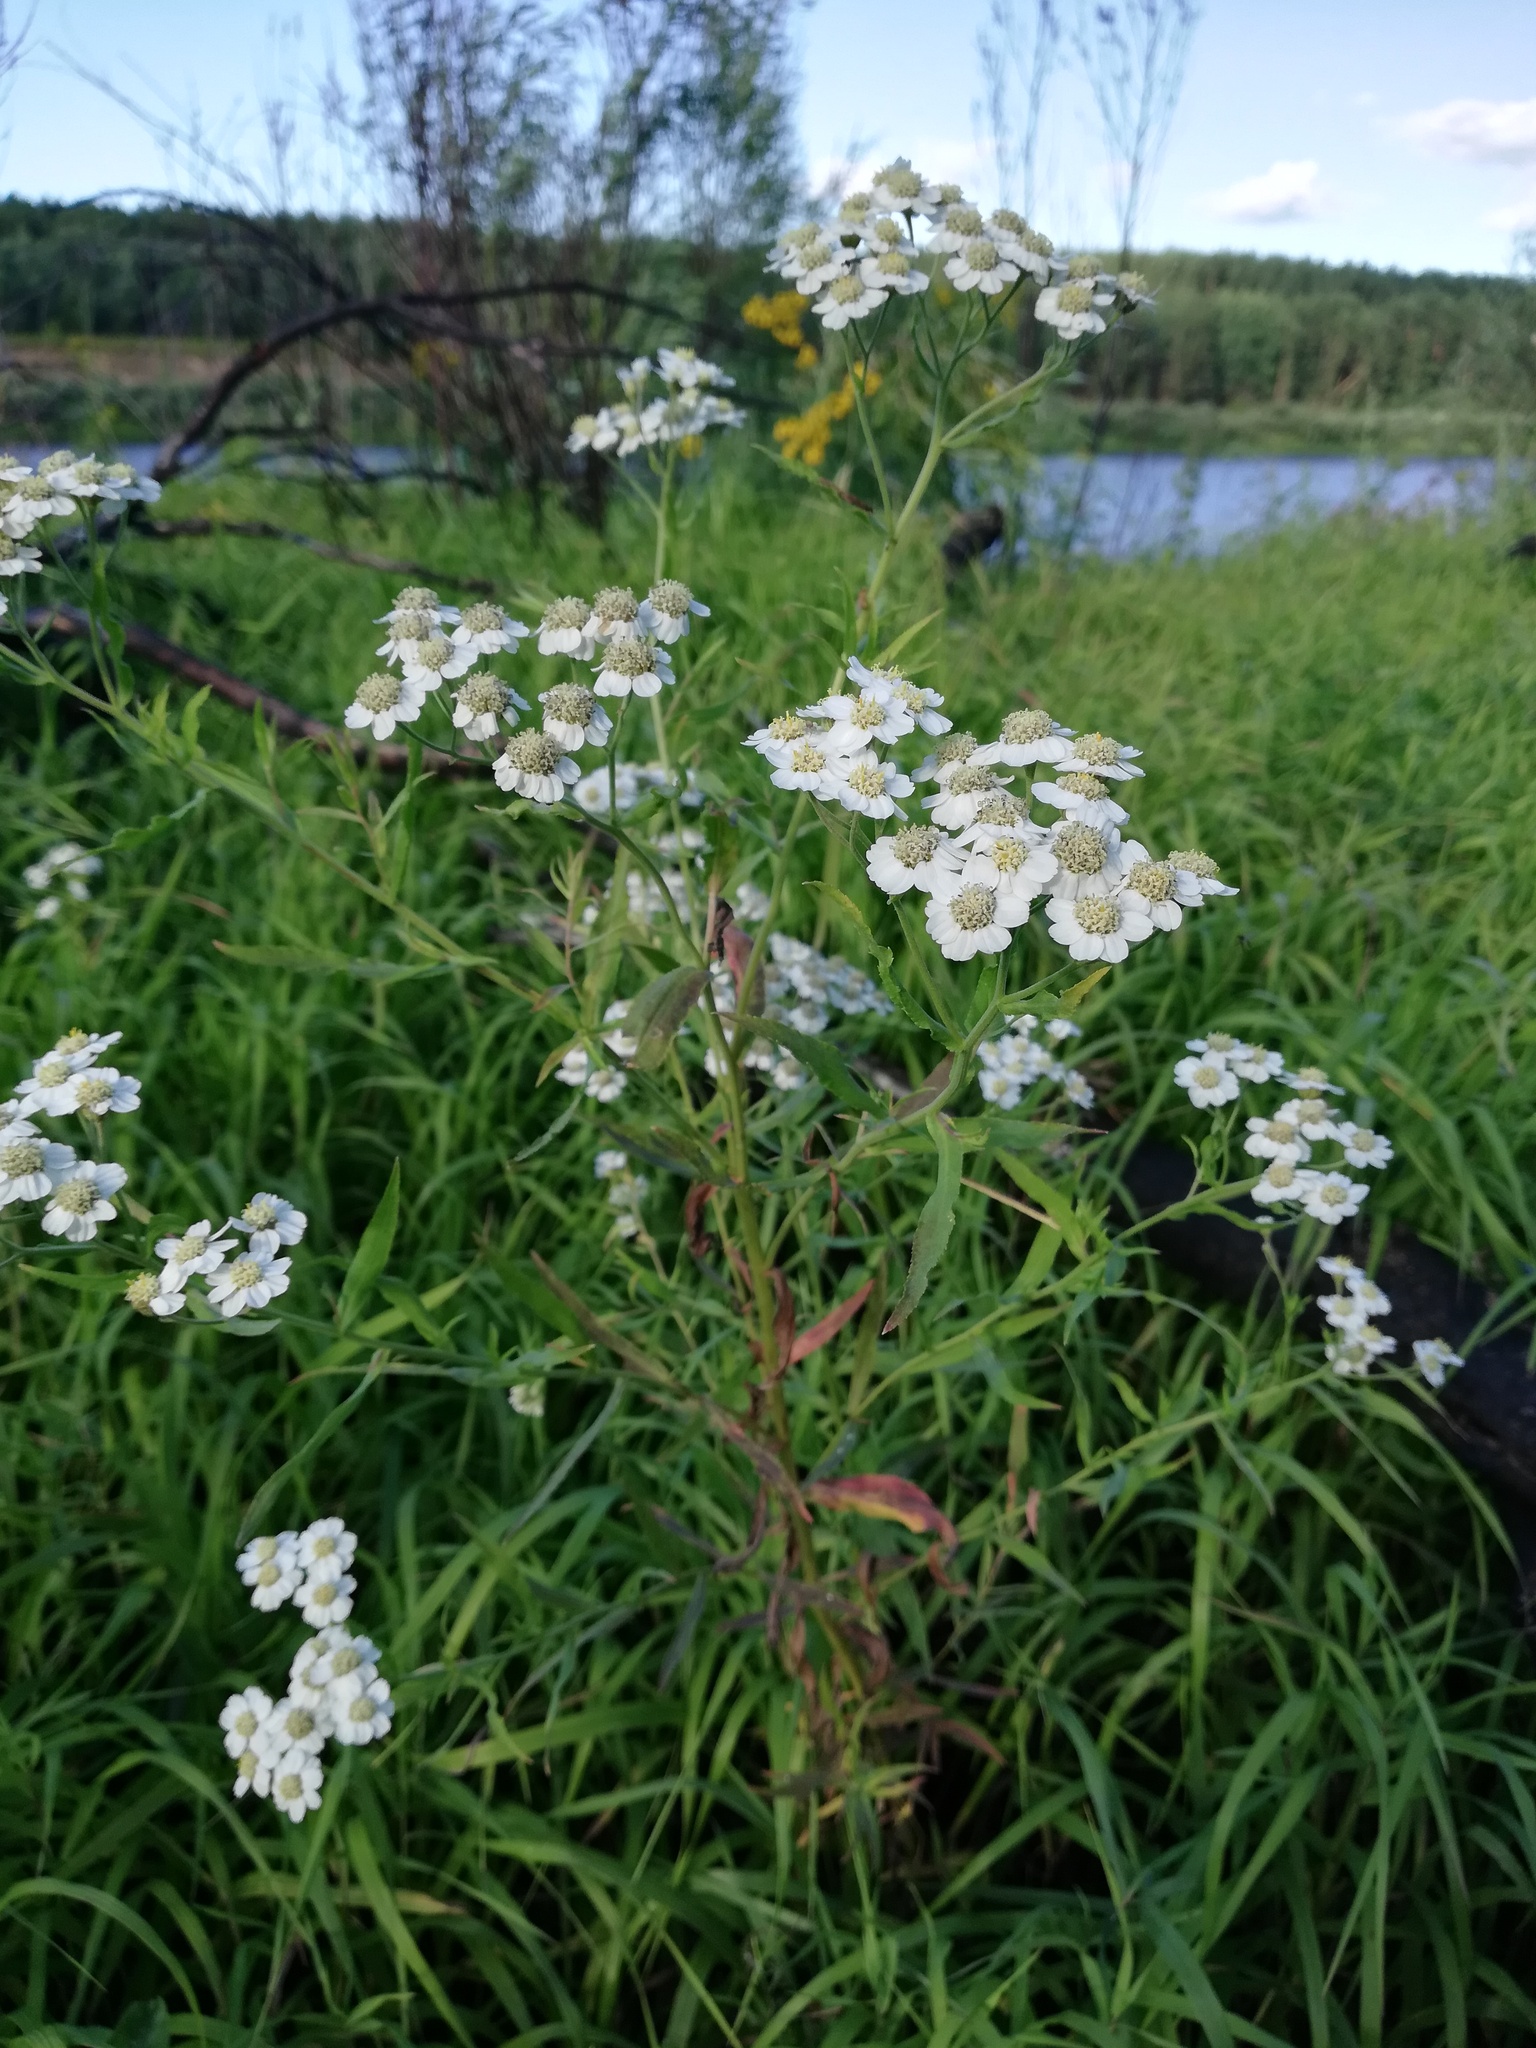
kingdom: Plantae
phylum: Tracheophyta
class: Magnoliopsida
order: Asterales
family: Asteraceae
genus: Achillea
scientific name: Achillea salicifolia
